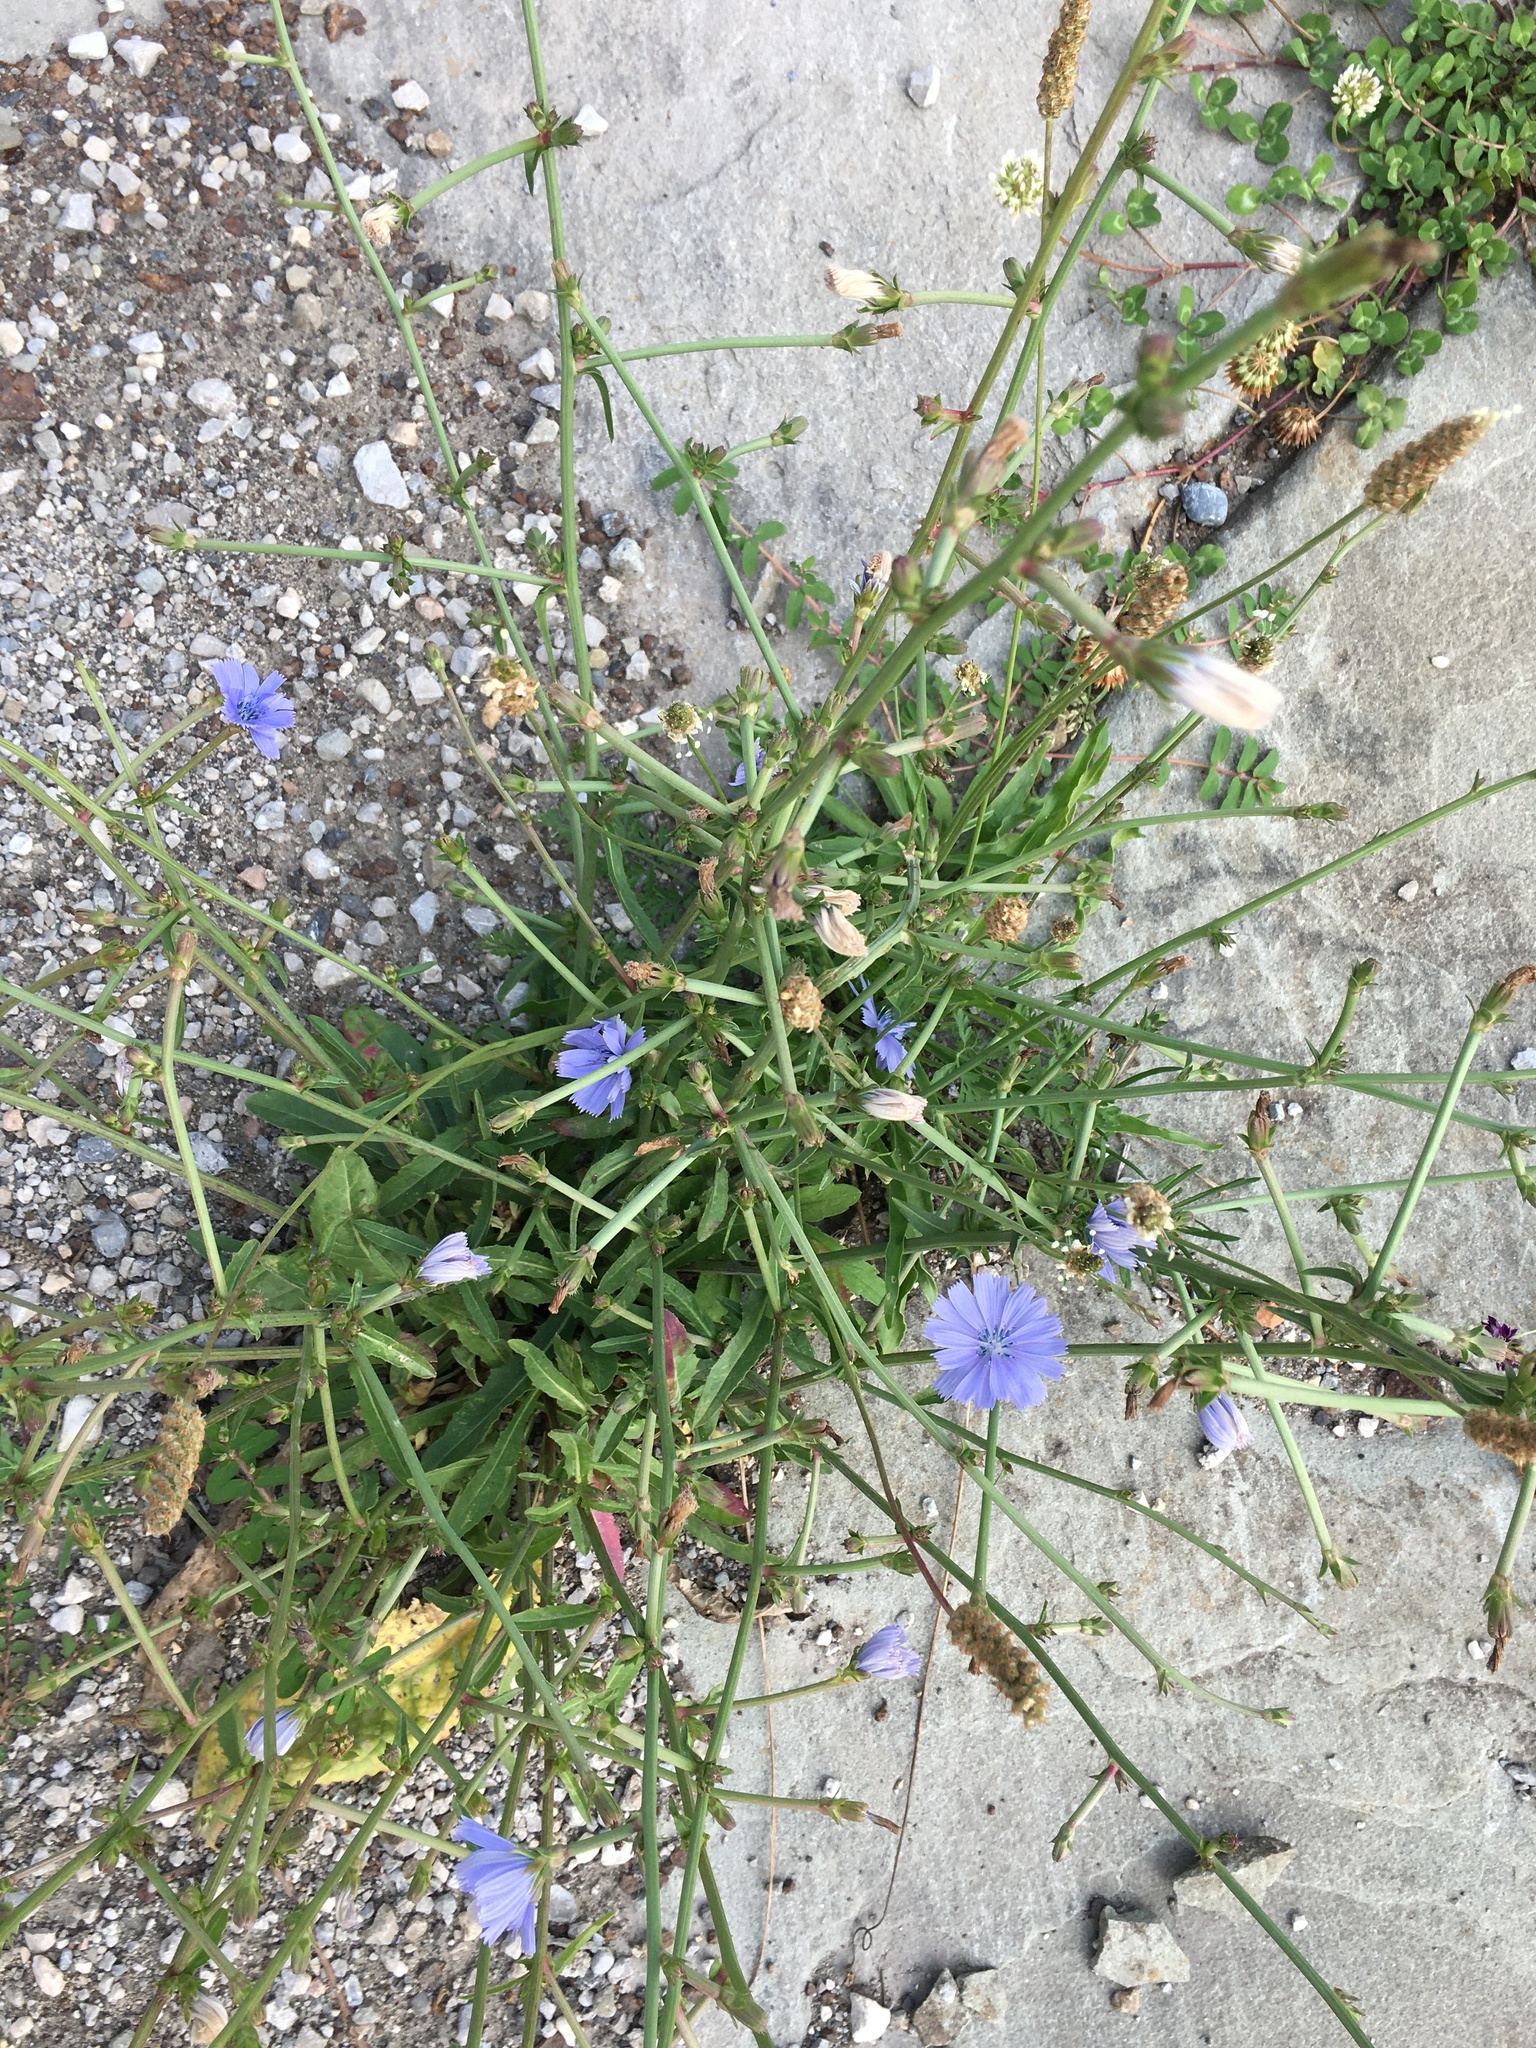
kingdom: Plantae
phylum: Tracheophyta
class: Magnoliopsida
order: Asterales
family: Asteraceae
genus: Cichorium
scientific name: Cichorium intybus
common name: Chicory
